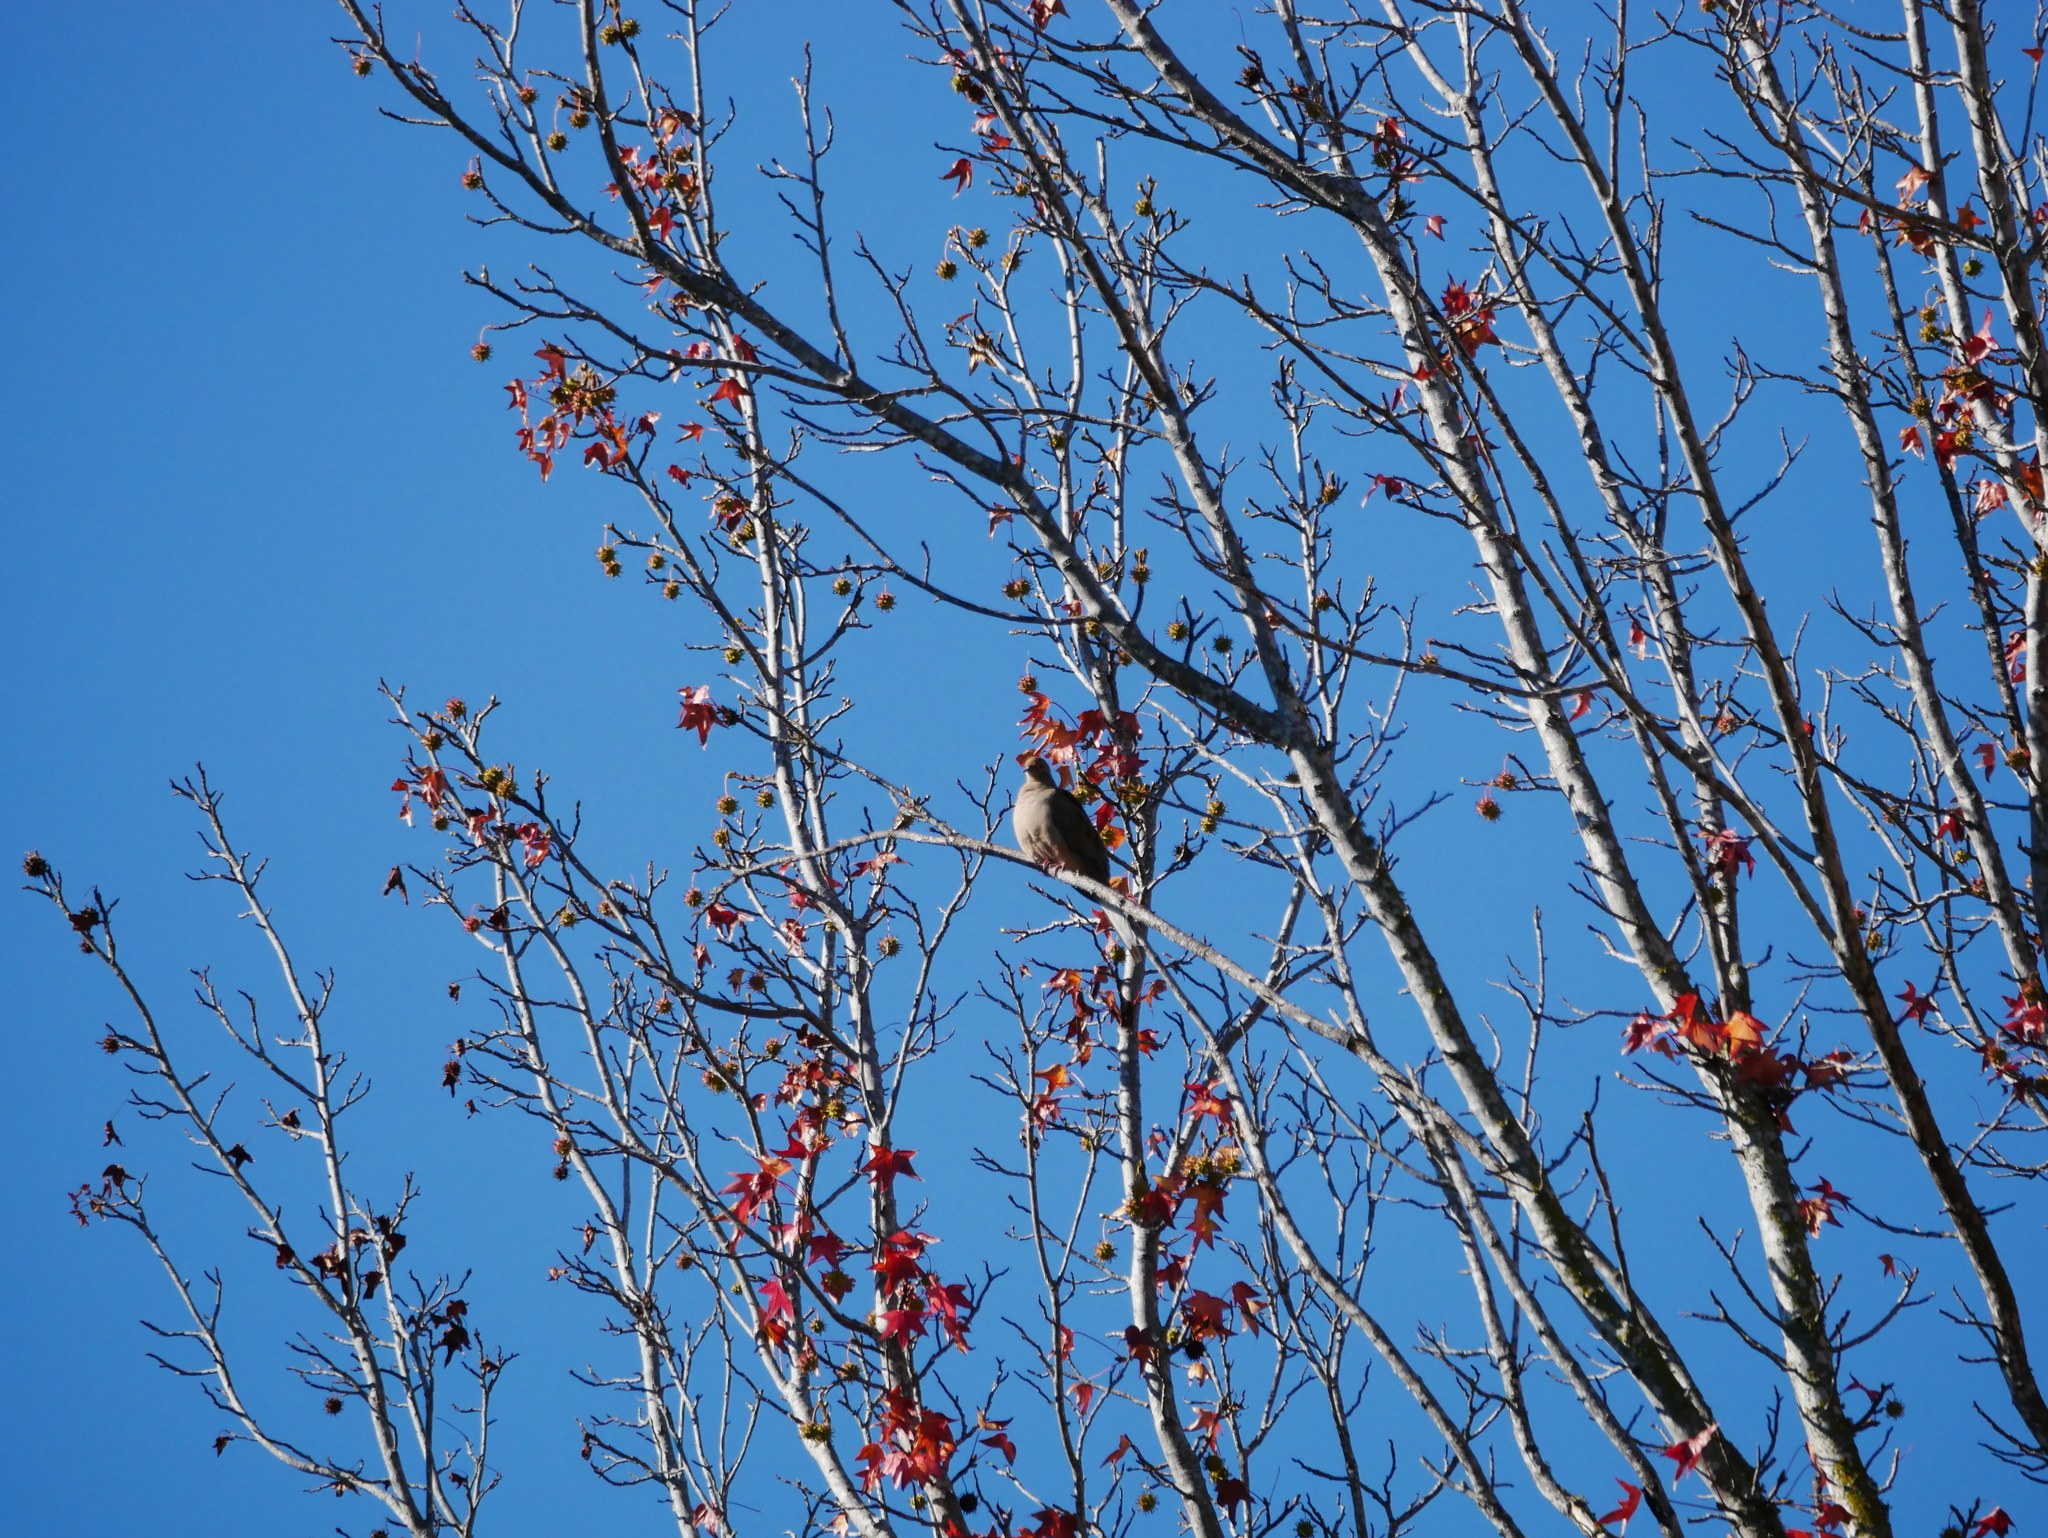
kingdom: Animalia
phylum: Chordata
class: Aves
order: Columbiformes
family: Columbidae
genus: Zenaida
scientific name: Zenaida macroura
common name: Mourning dove
